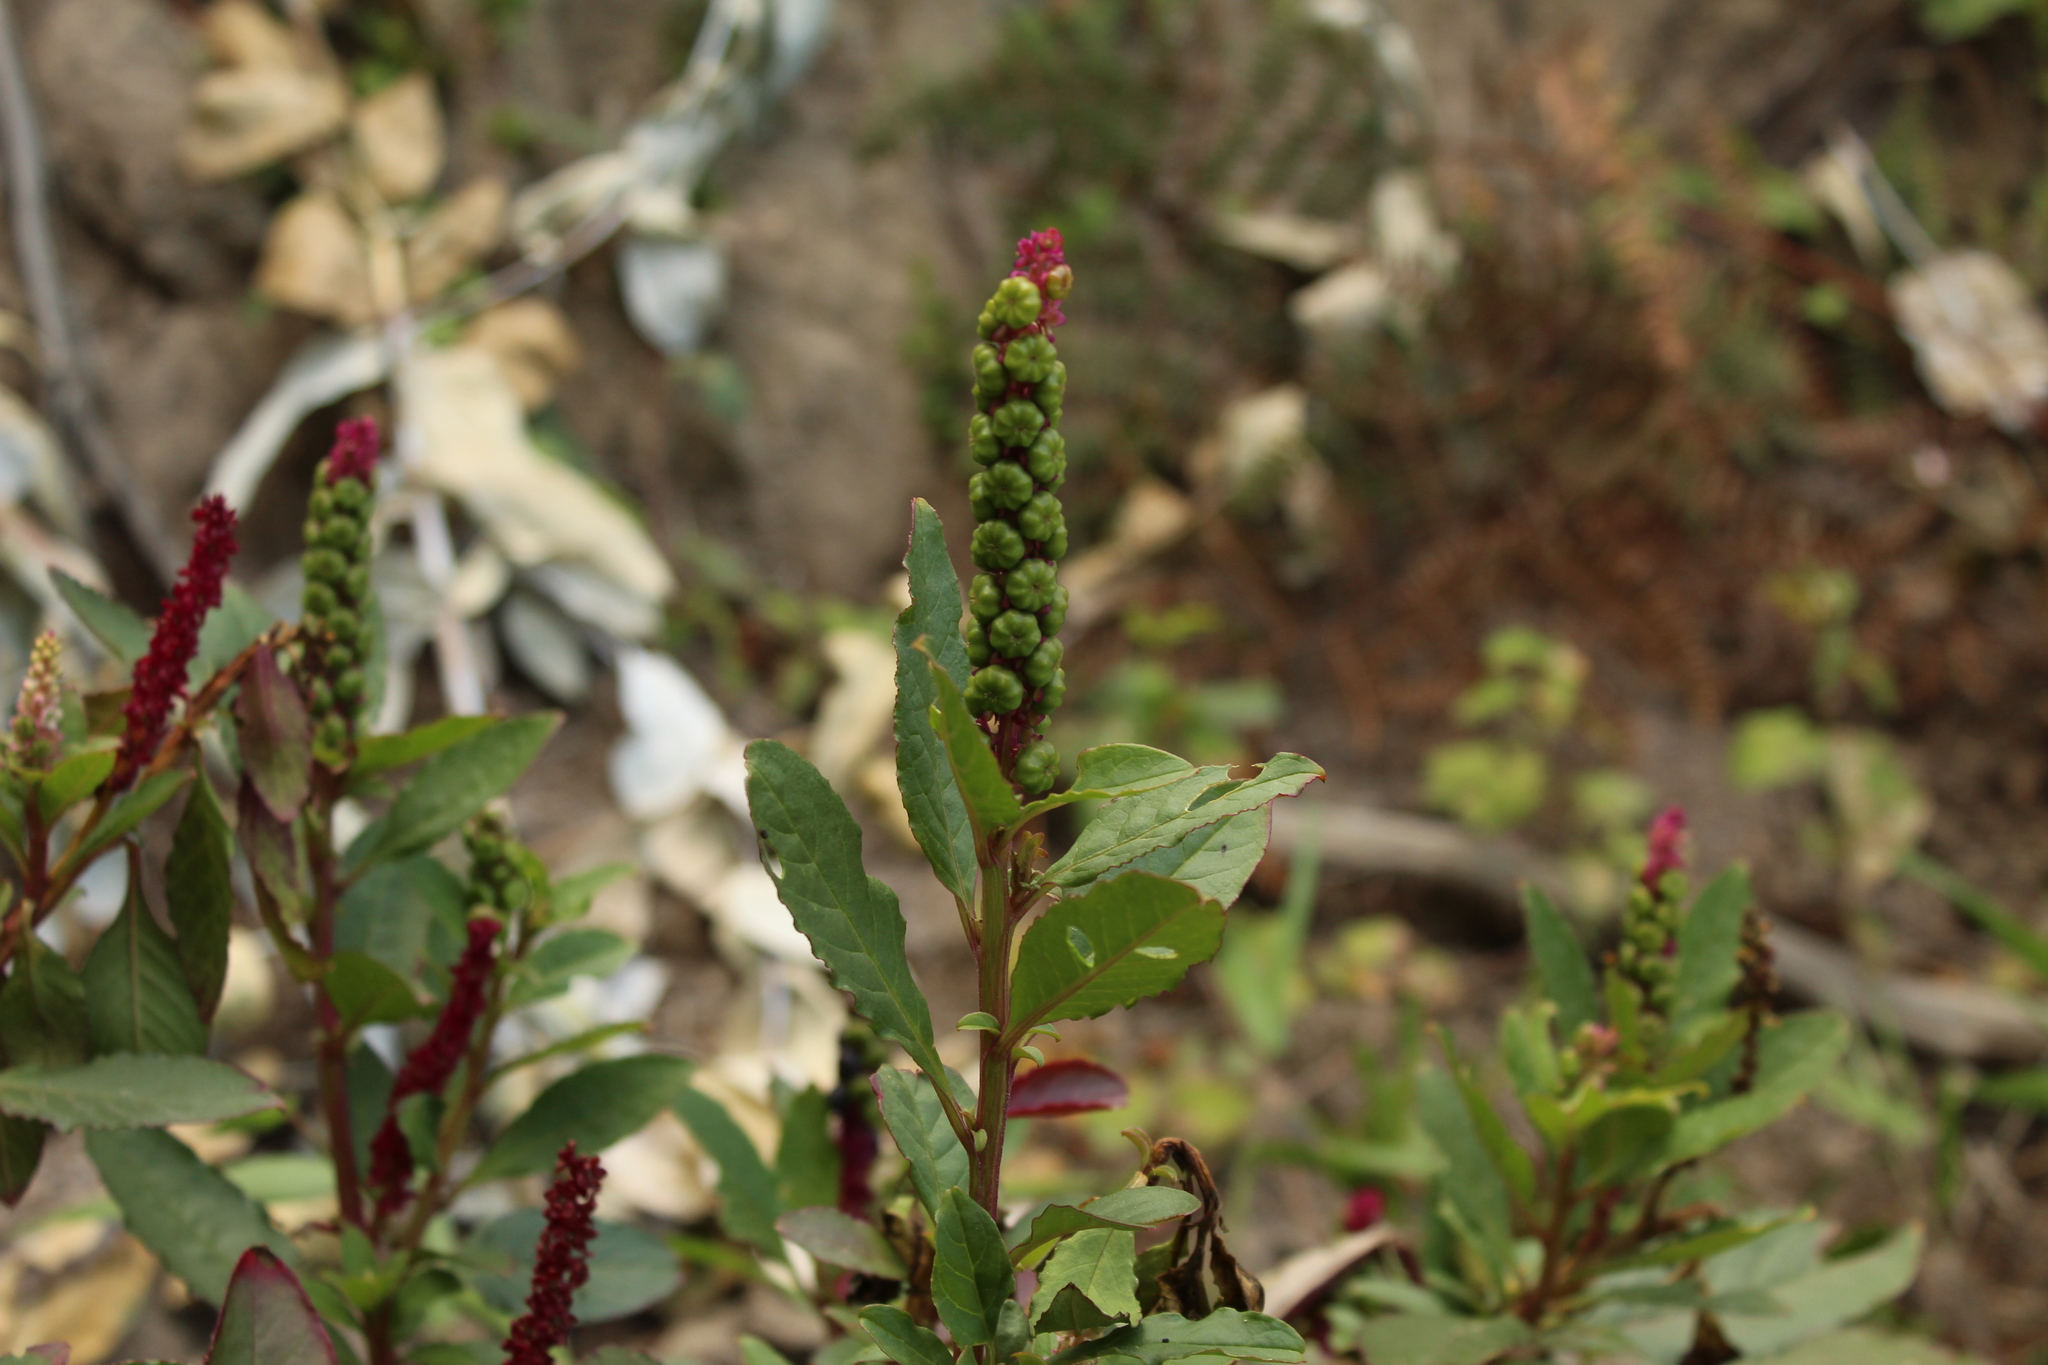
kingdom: Plantae
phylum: Tracheophyta
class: Magnoliopsida
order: Caryophyllales
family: Phytolaccaceae
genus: Phytolacca
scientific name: Phytolacca icosandra
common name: Button pokeweed
